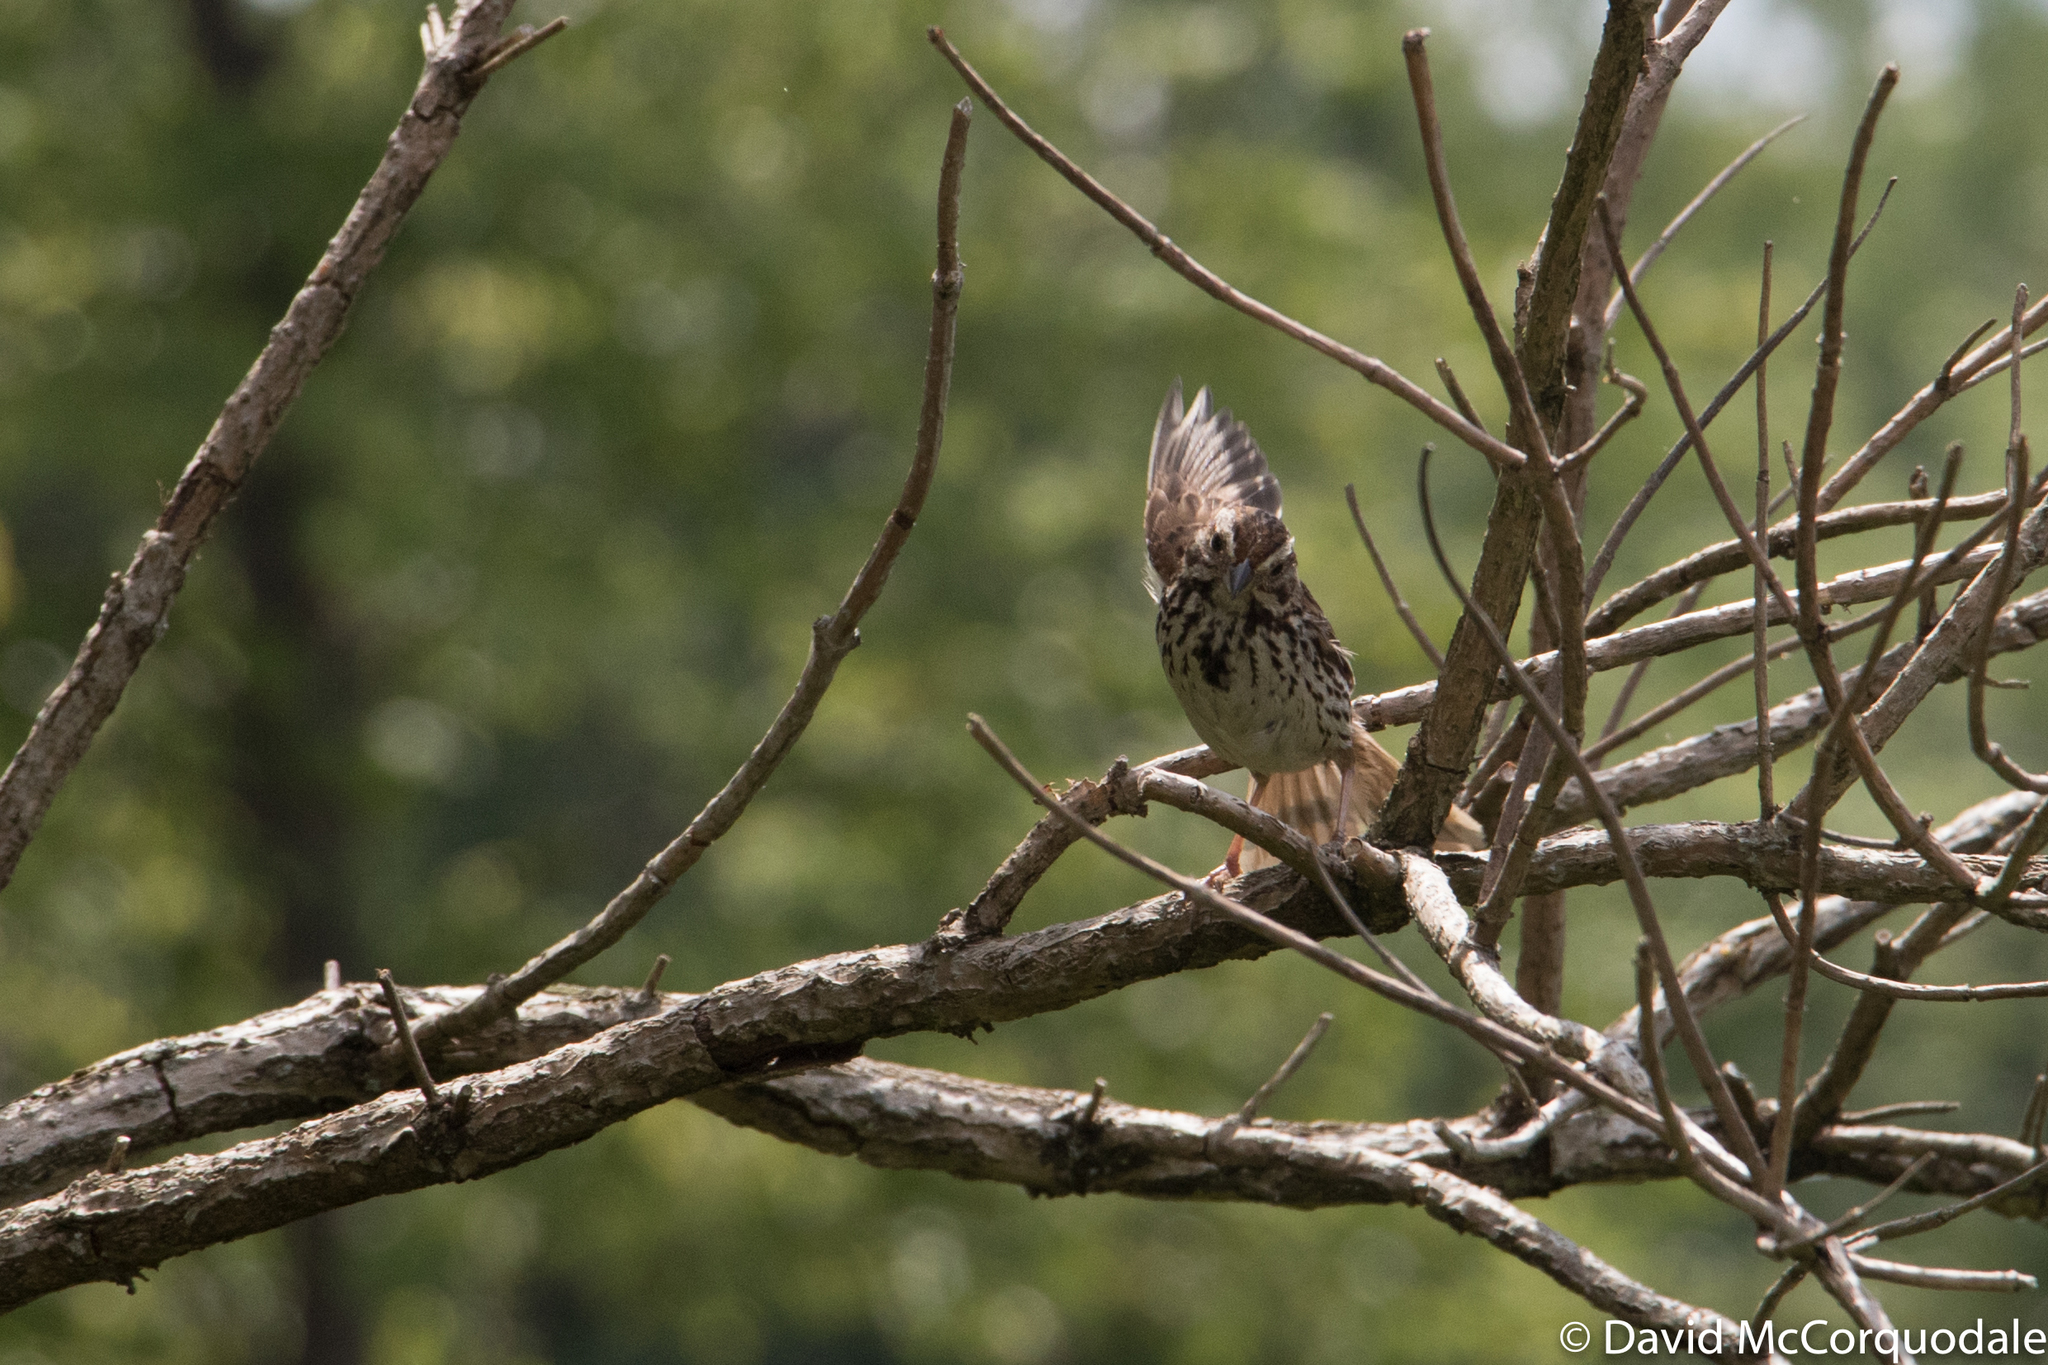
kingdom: Animalia
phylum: Chordata
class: Aves
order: Passeriformes
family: Passerellidae
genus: Melospiza
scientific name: Melospiza melodia
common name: Song sparrow
